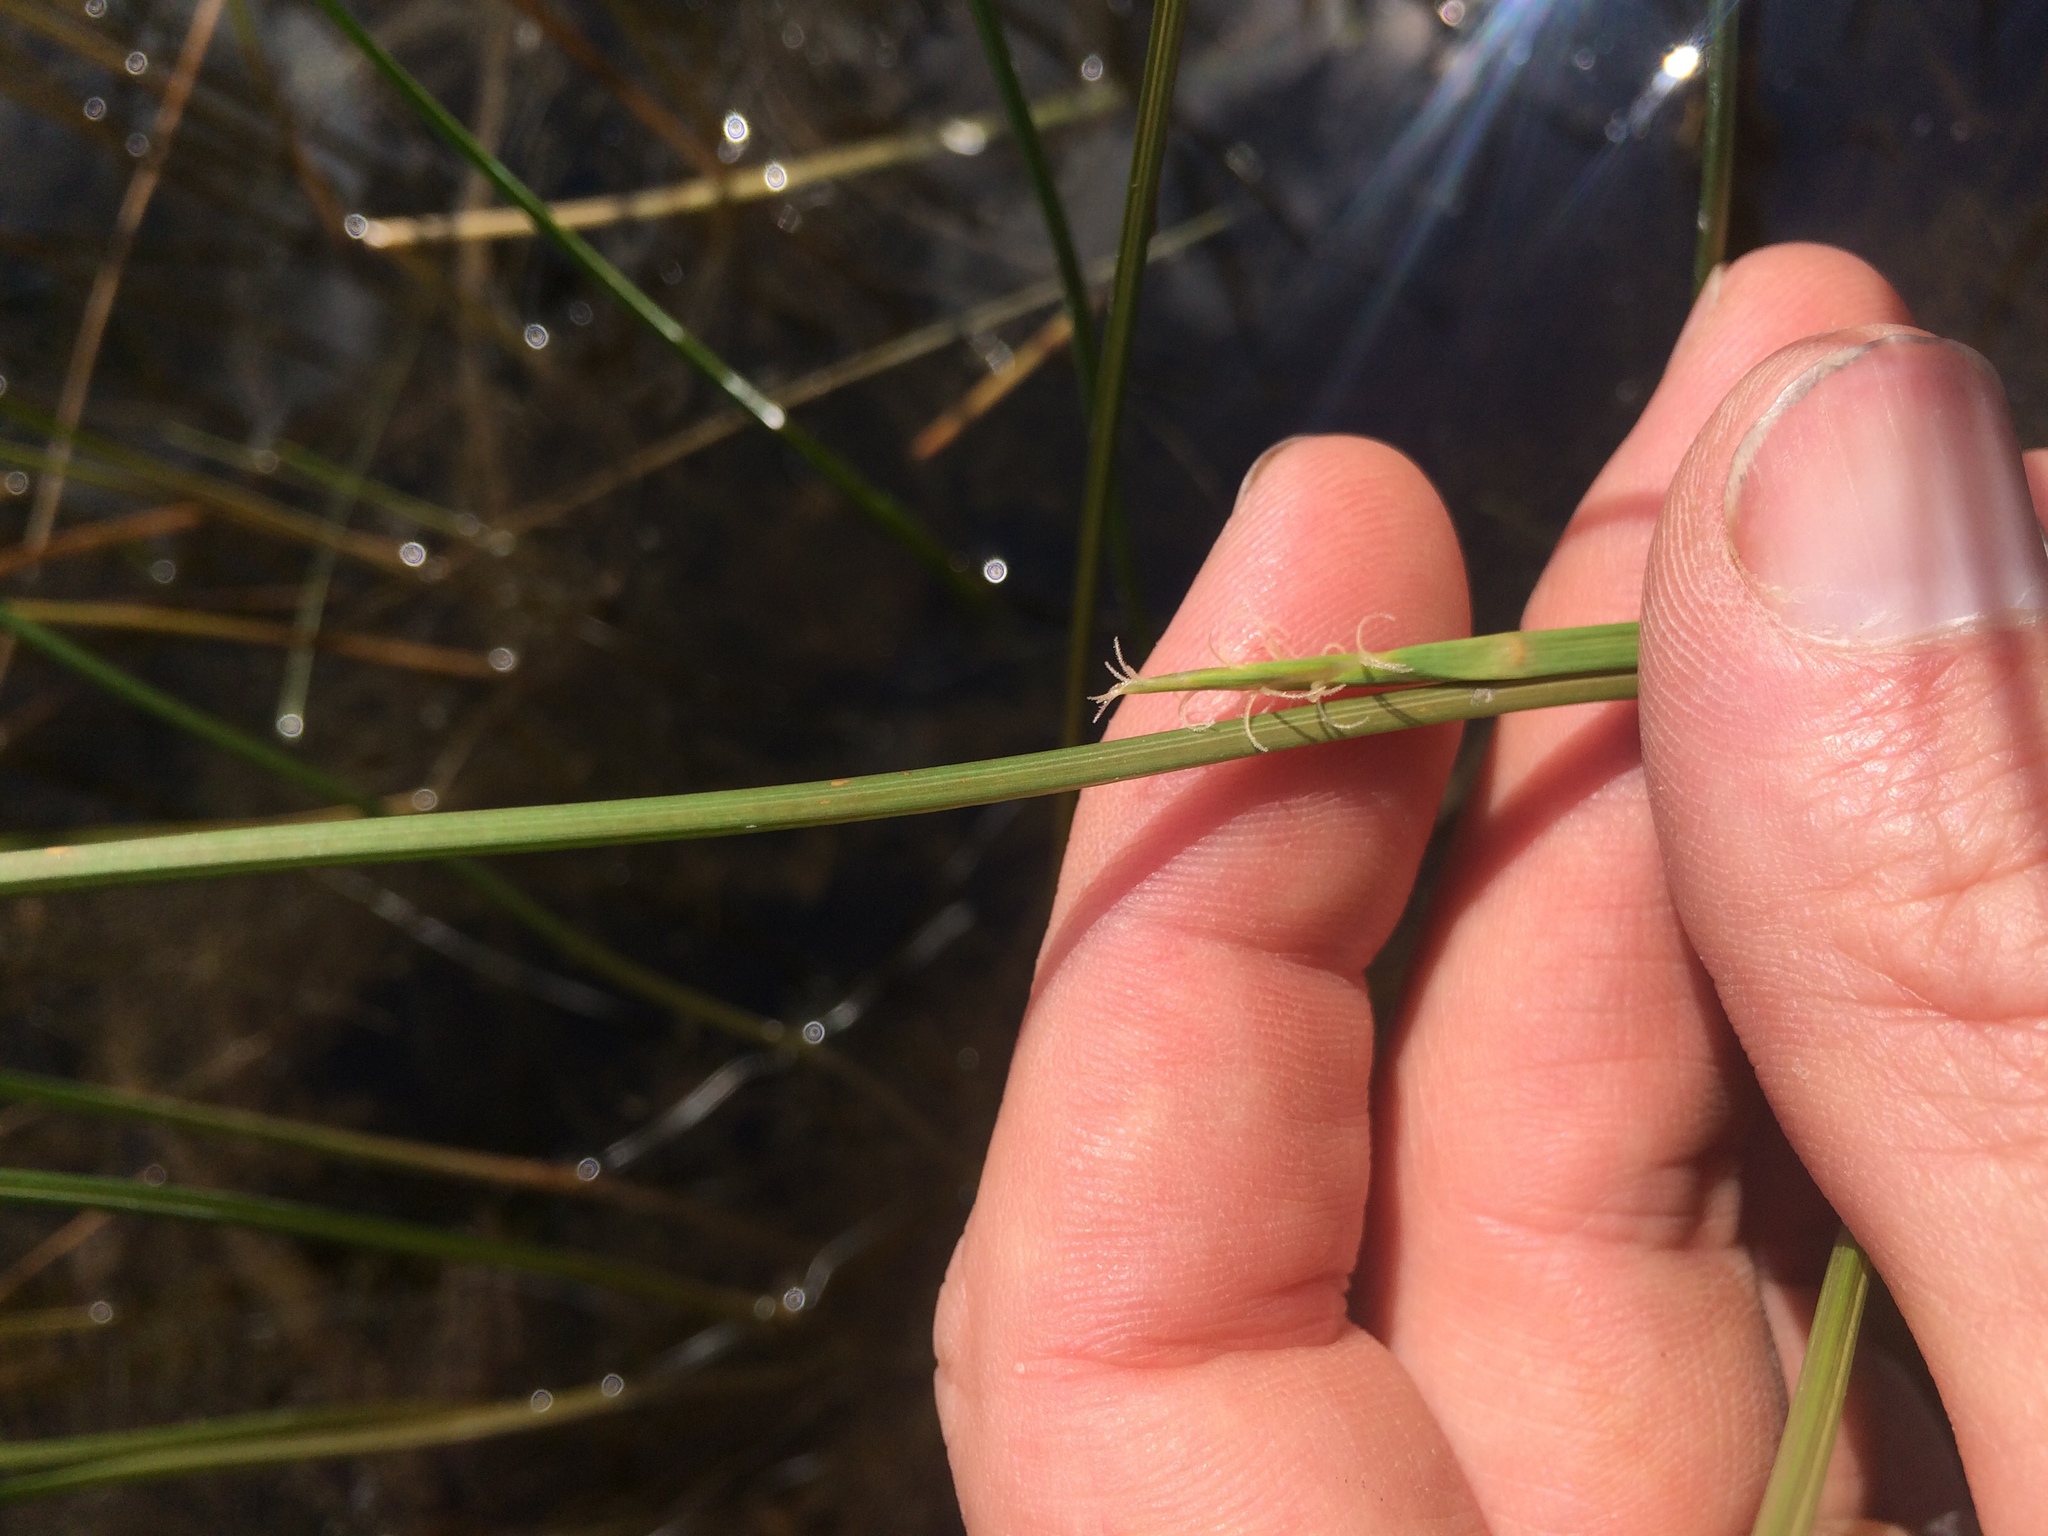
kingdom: Plantae
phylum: Tracheophyta
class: Liliopsida
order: Poales
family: Cyperaceae
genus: Eleocharis
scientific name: Eleocharis robbinsii
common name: Robbins' spikerush
